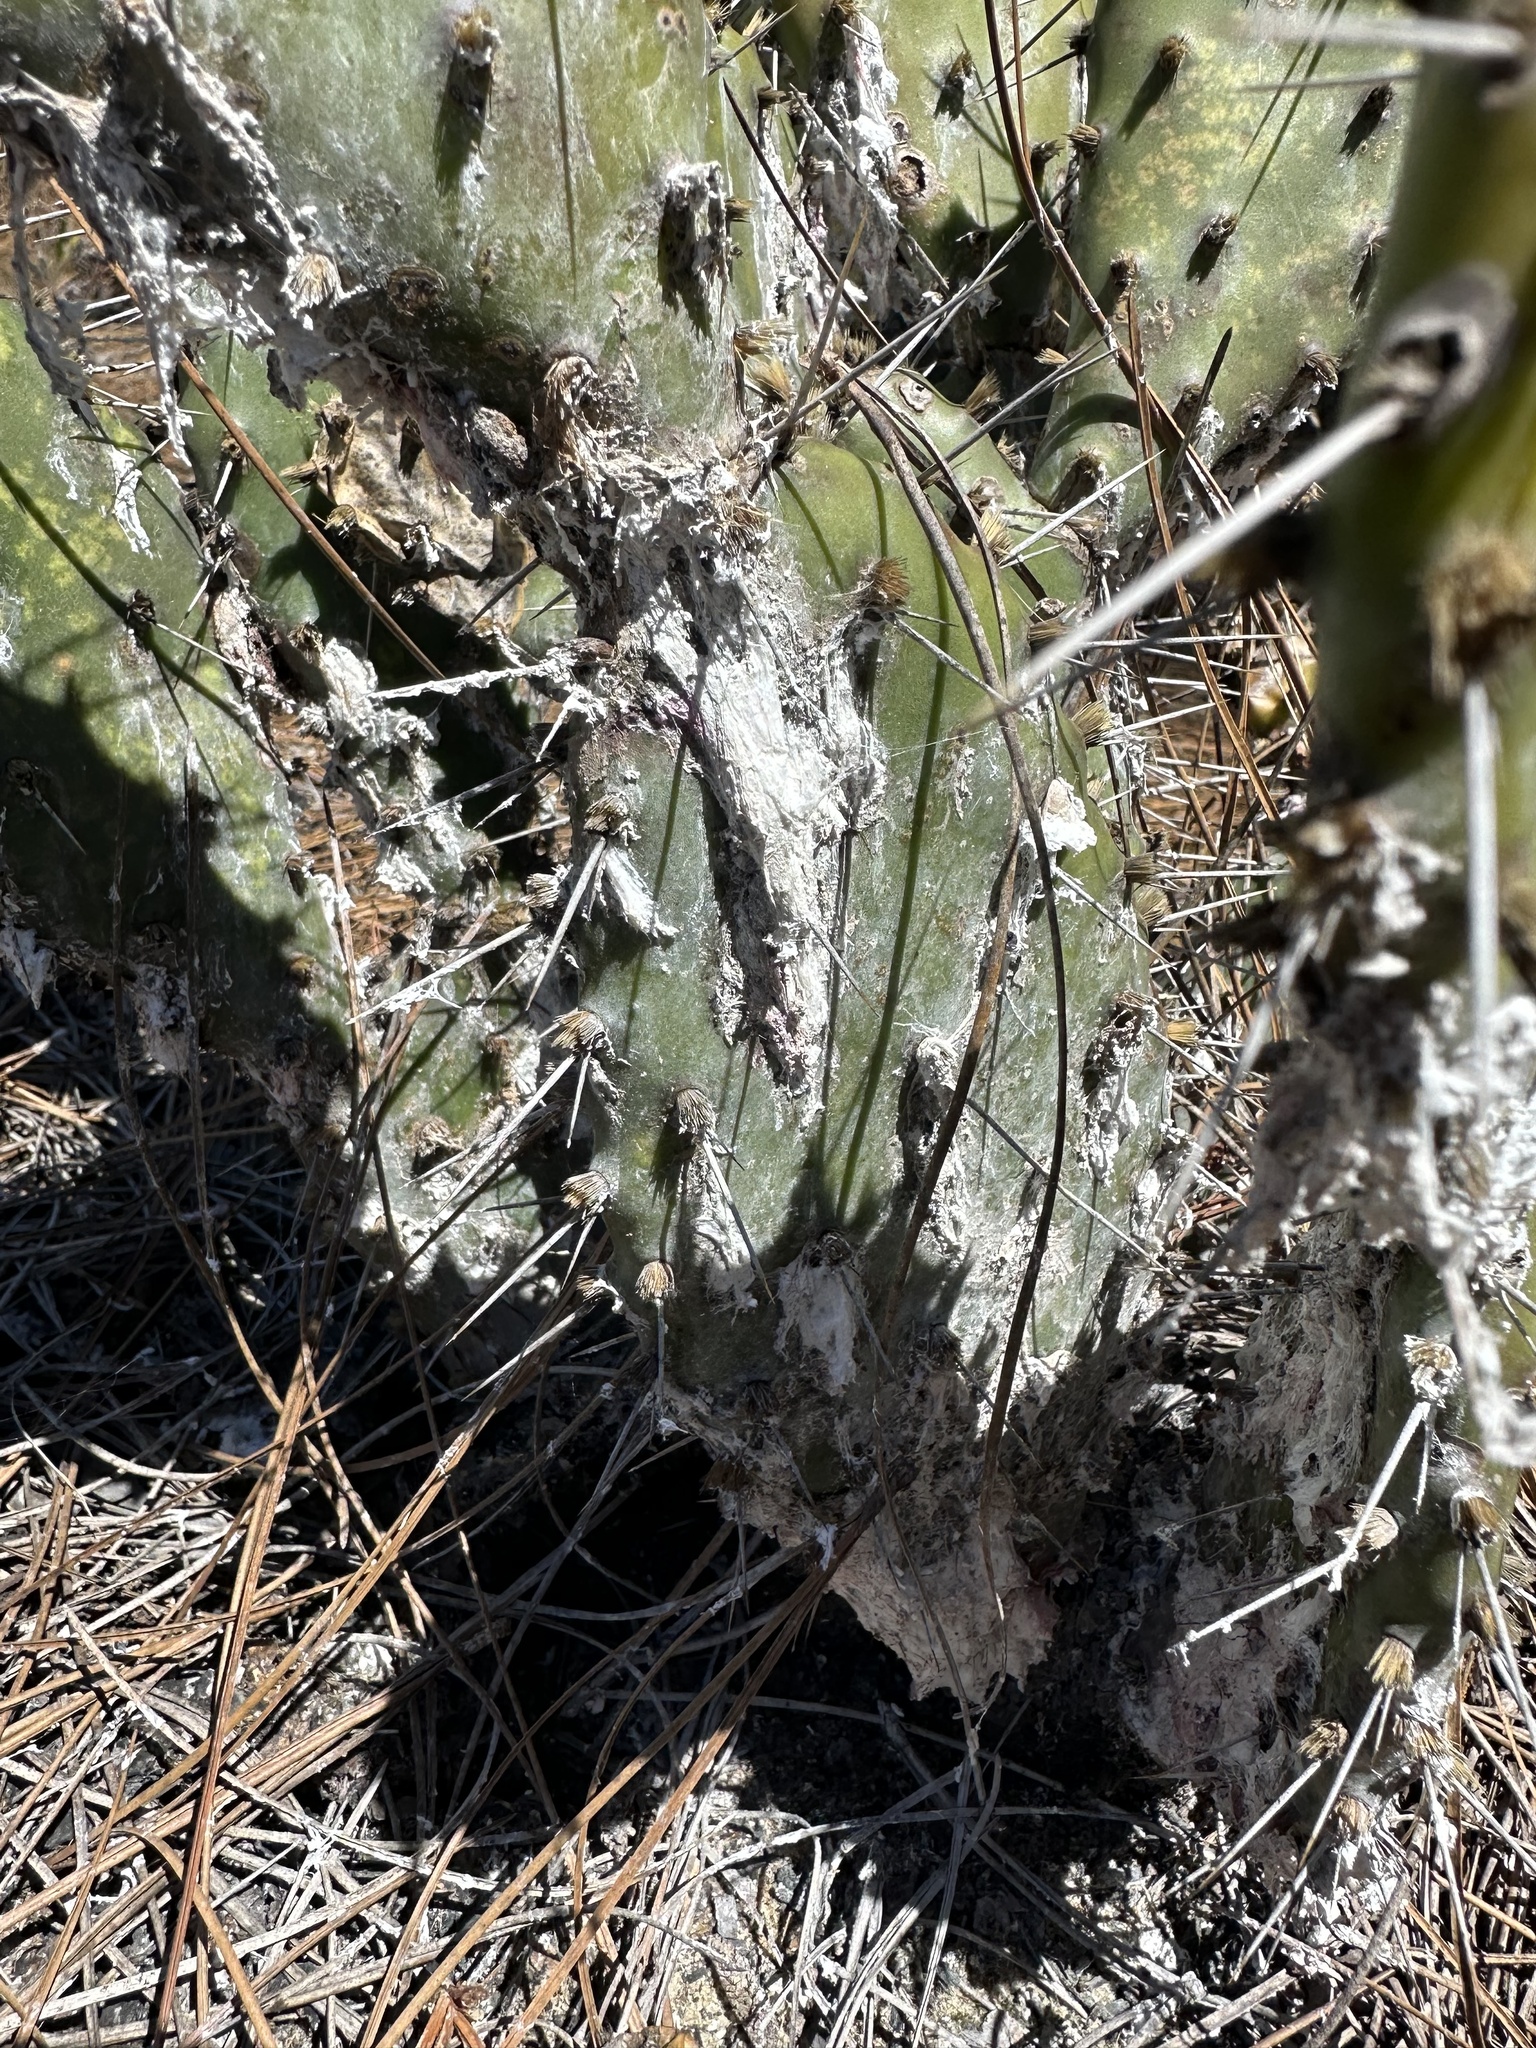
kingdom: Animalia
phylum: Arthropoda
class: Insecta
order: Hemiptera
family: Dactylopiidae
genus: Dactylopius
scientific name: Dactylopius confusus
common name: California cochineal scale
